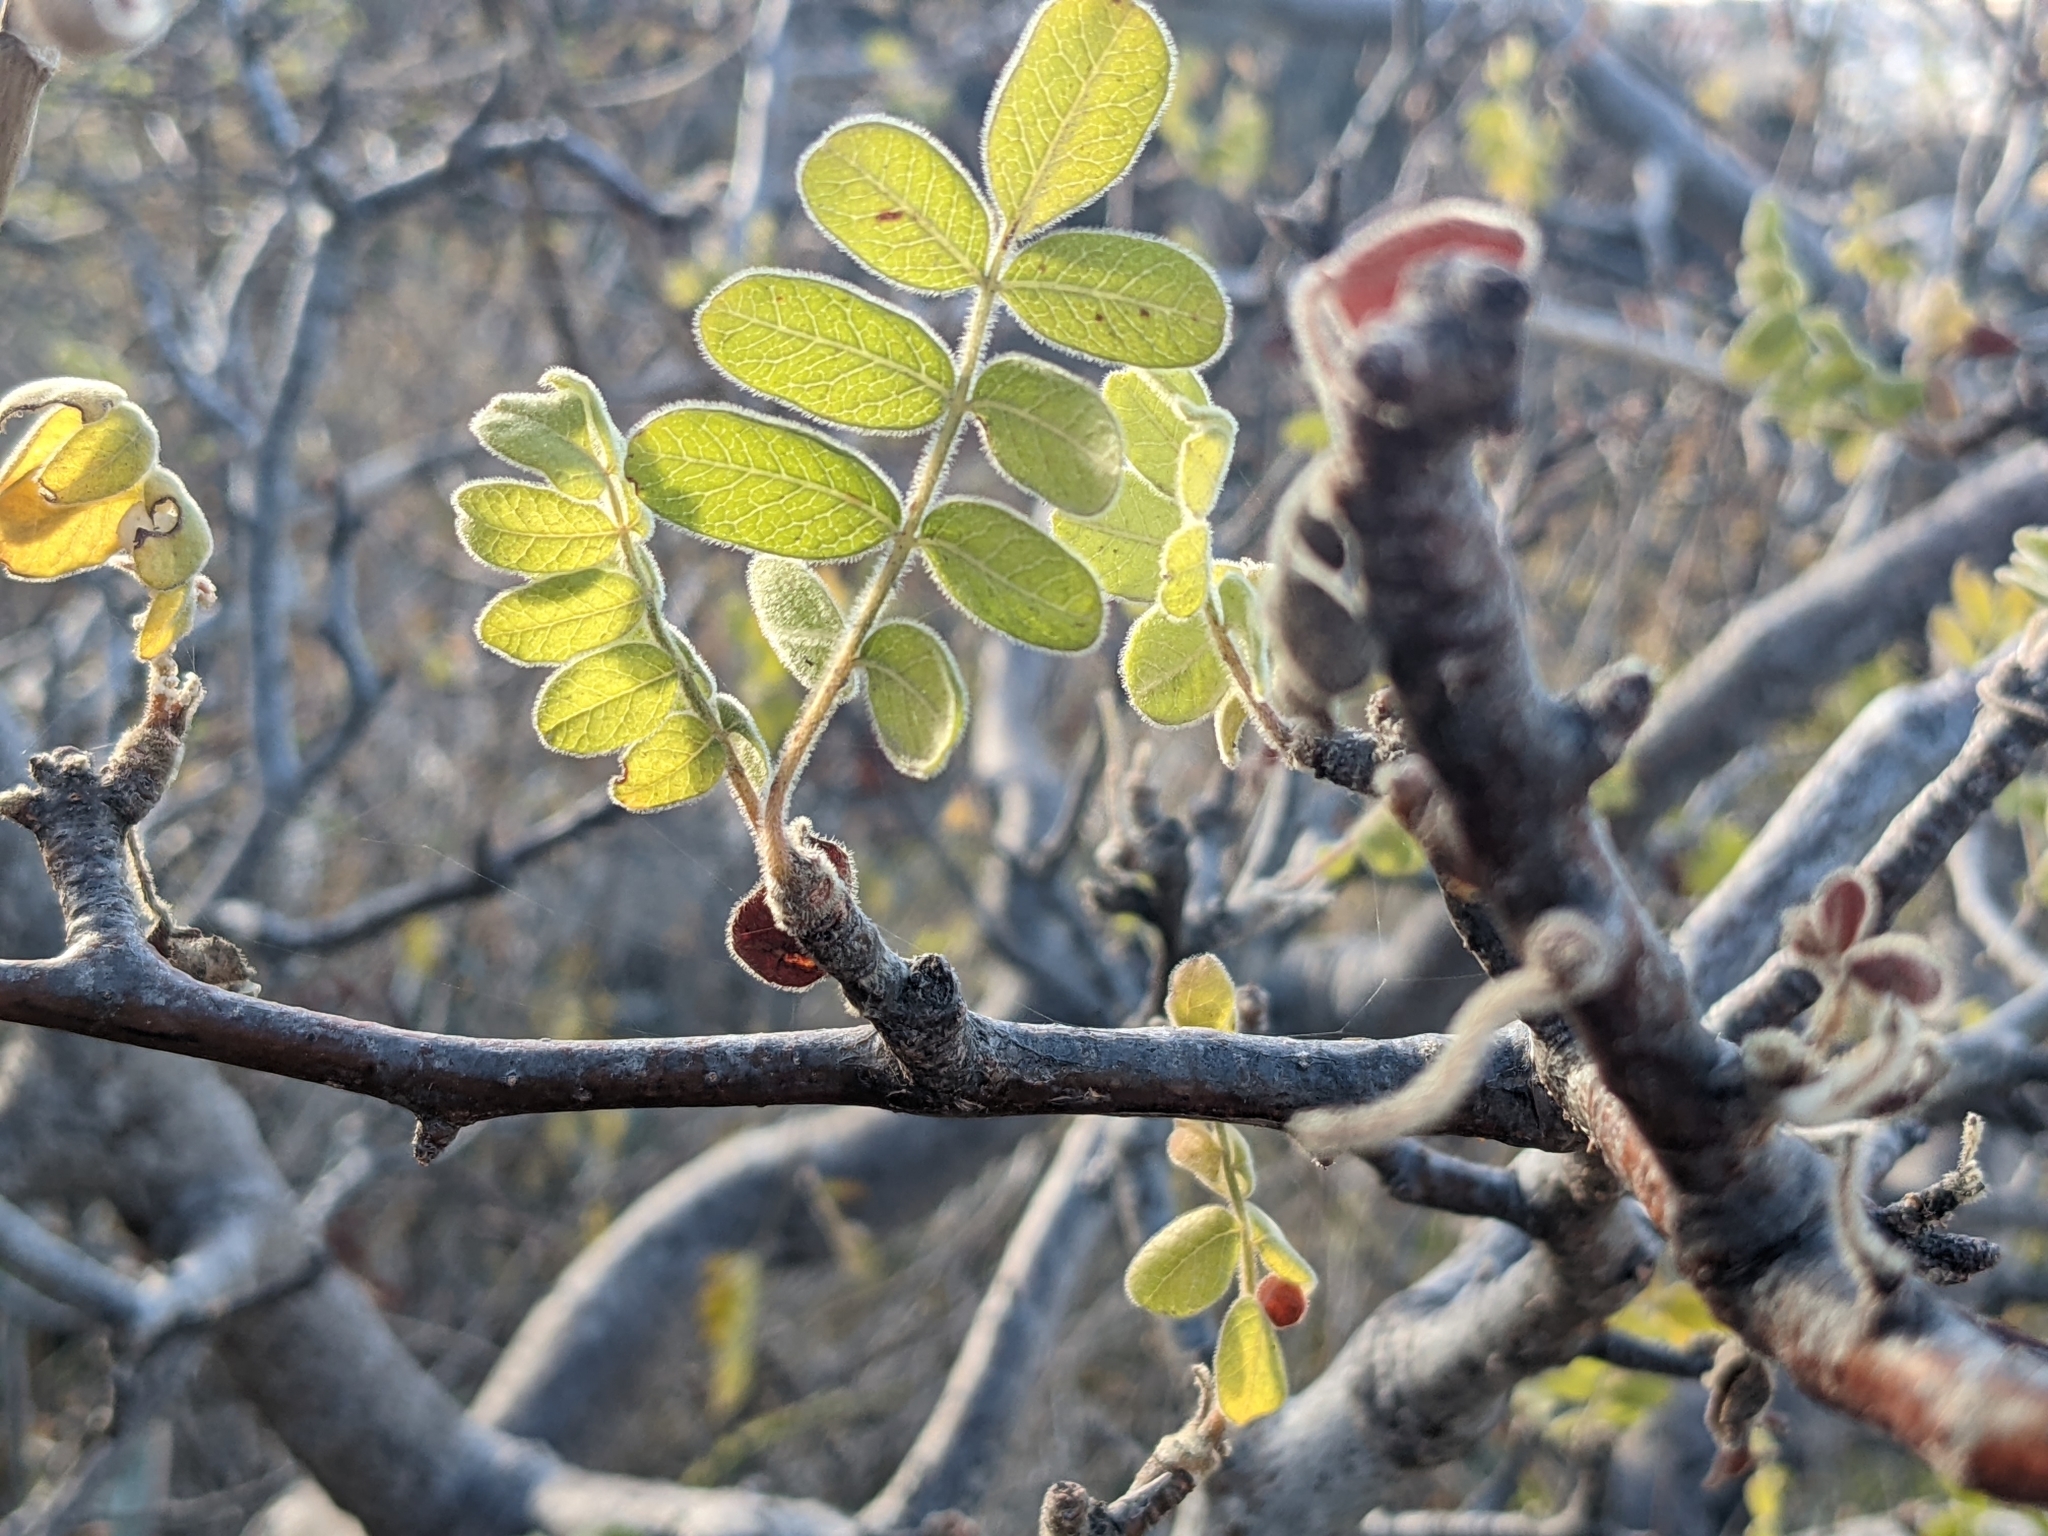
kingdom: Plantae
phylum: Tracheophyta
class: Magnoliopsida
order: Sapindales
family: Anacardiaceae
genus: Cyrtocarpa
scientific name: Cyrtocarpa edulis
